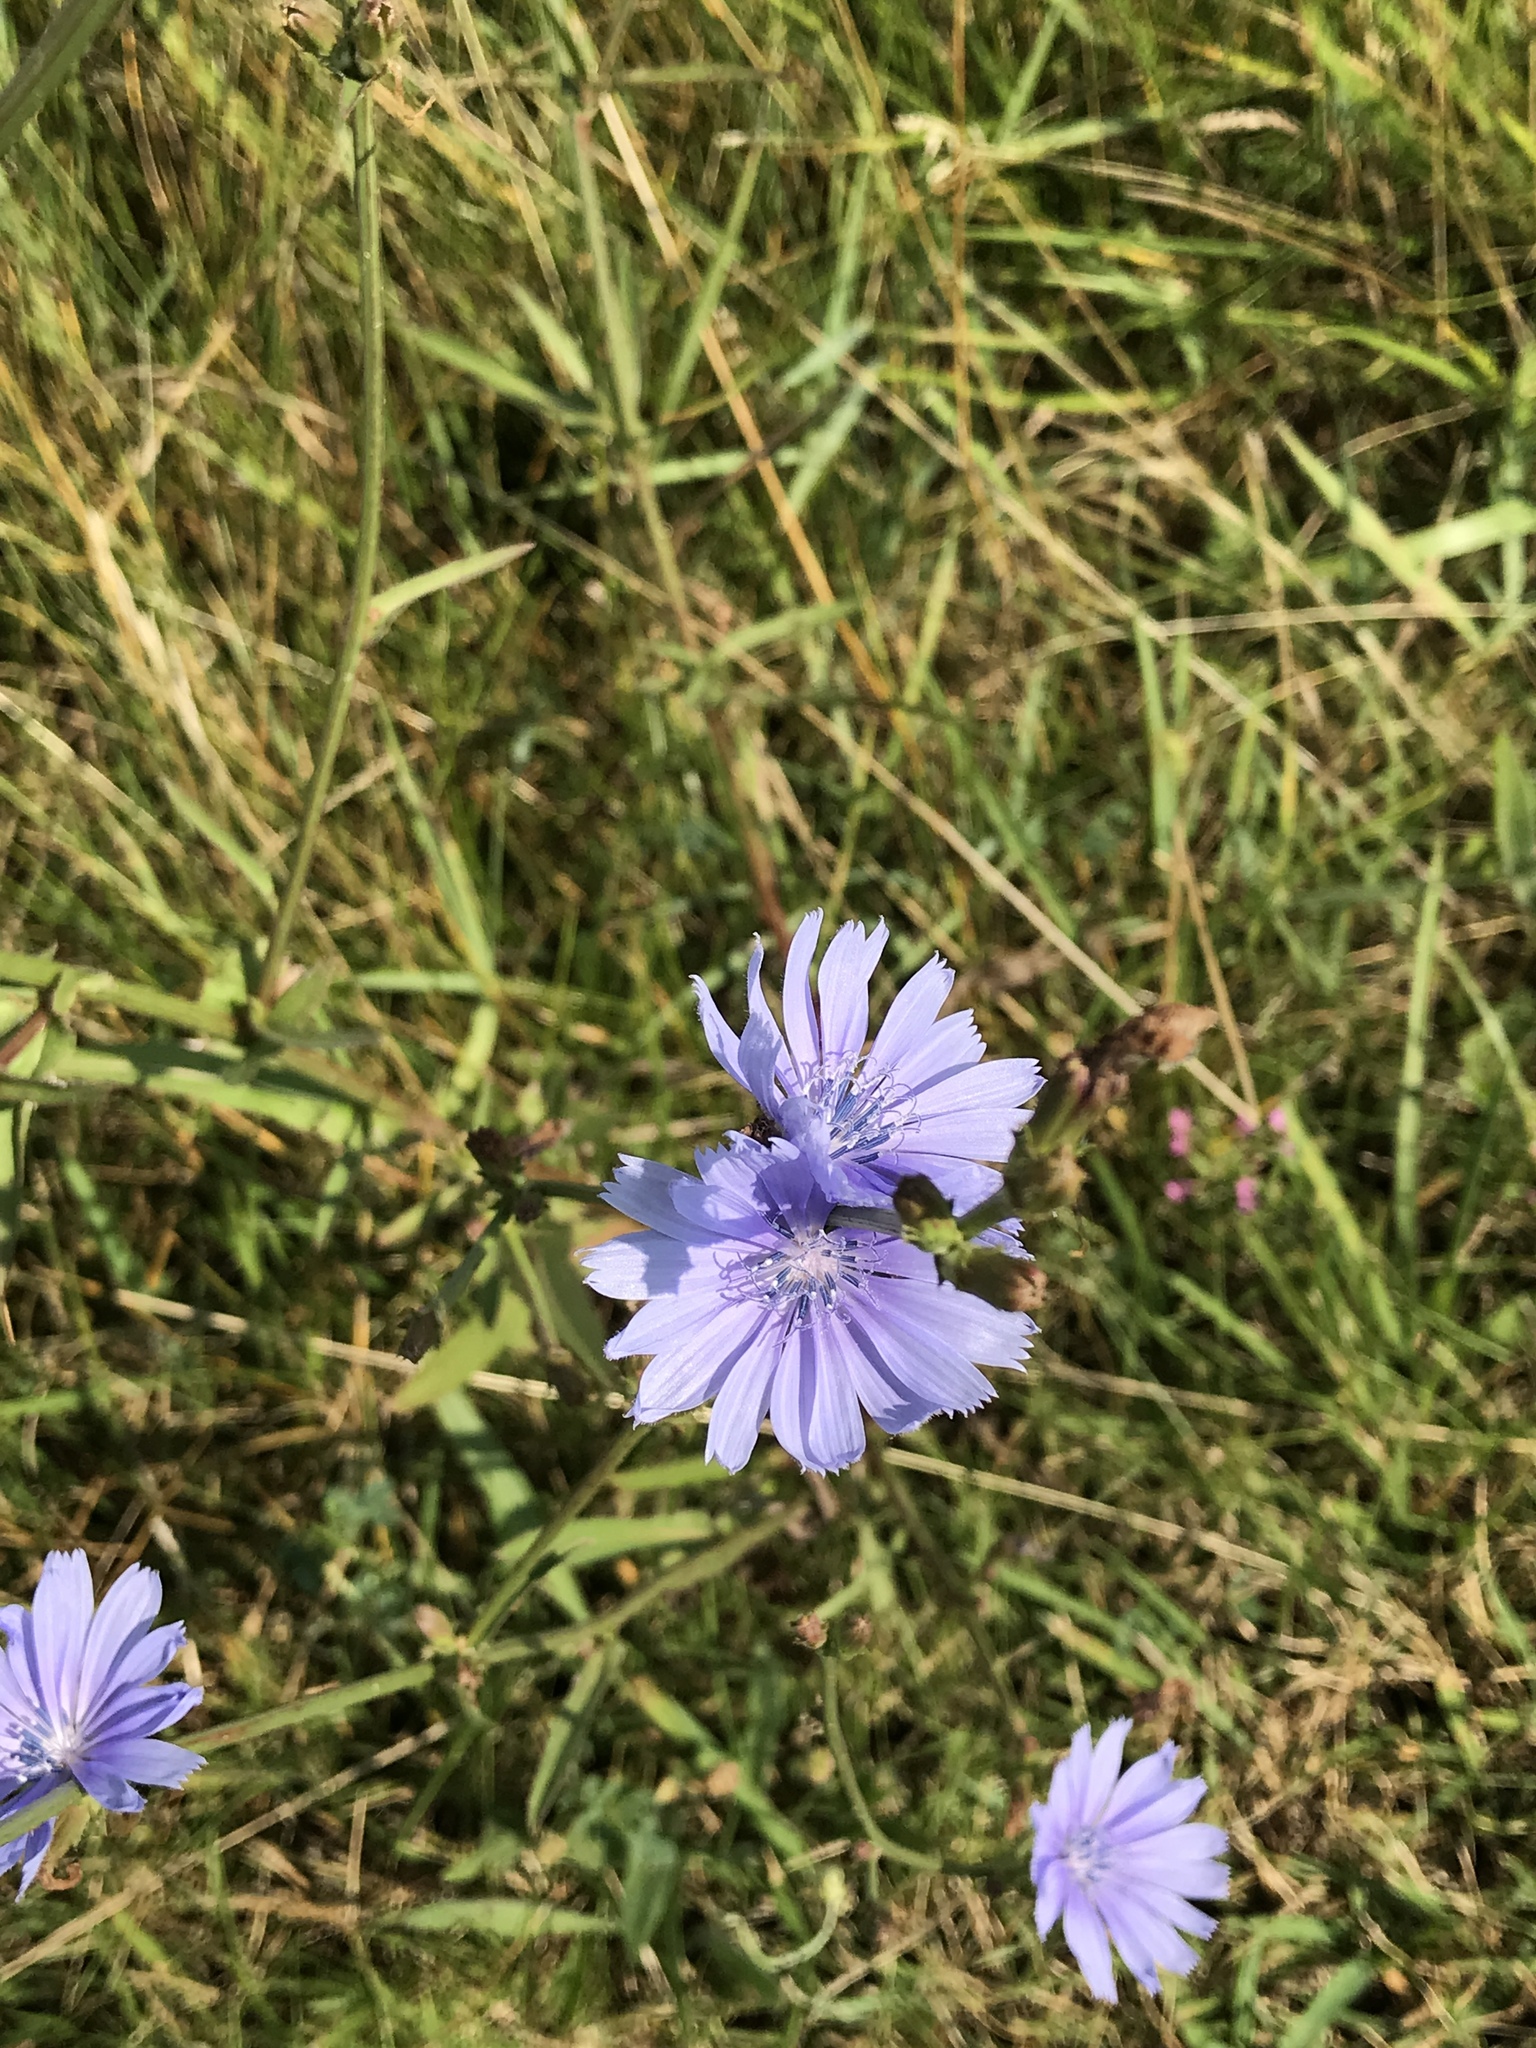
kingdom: Plantae
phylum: Tracheophyta
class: Magnoliopsida
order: Asterales
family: Asteraceae
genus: Cichorium
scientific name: Cichorium intybus
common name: Chicory
